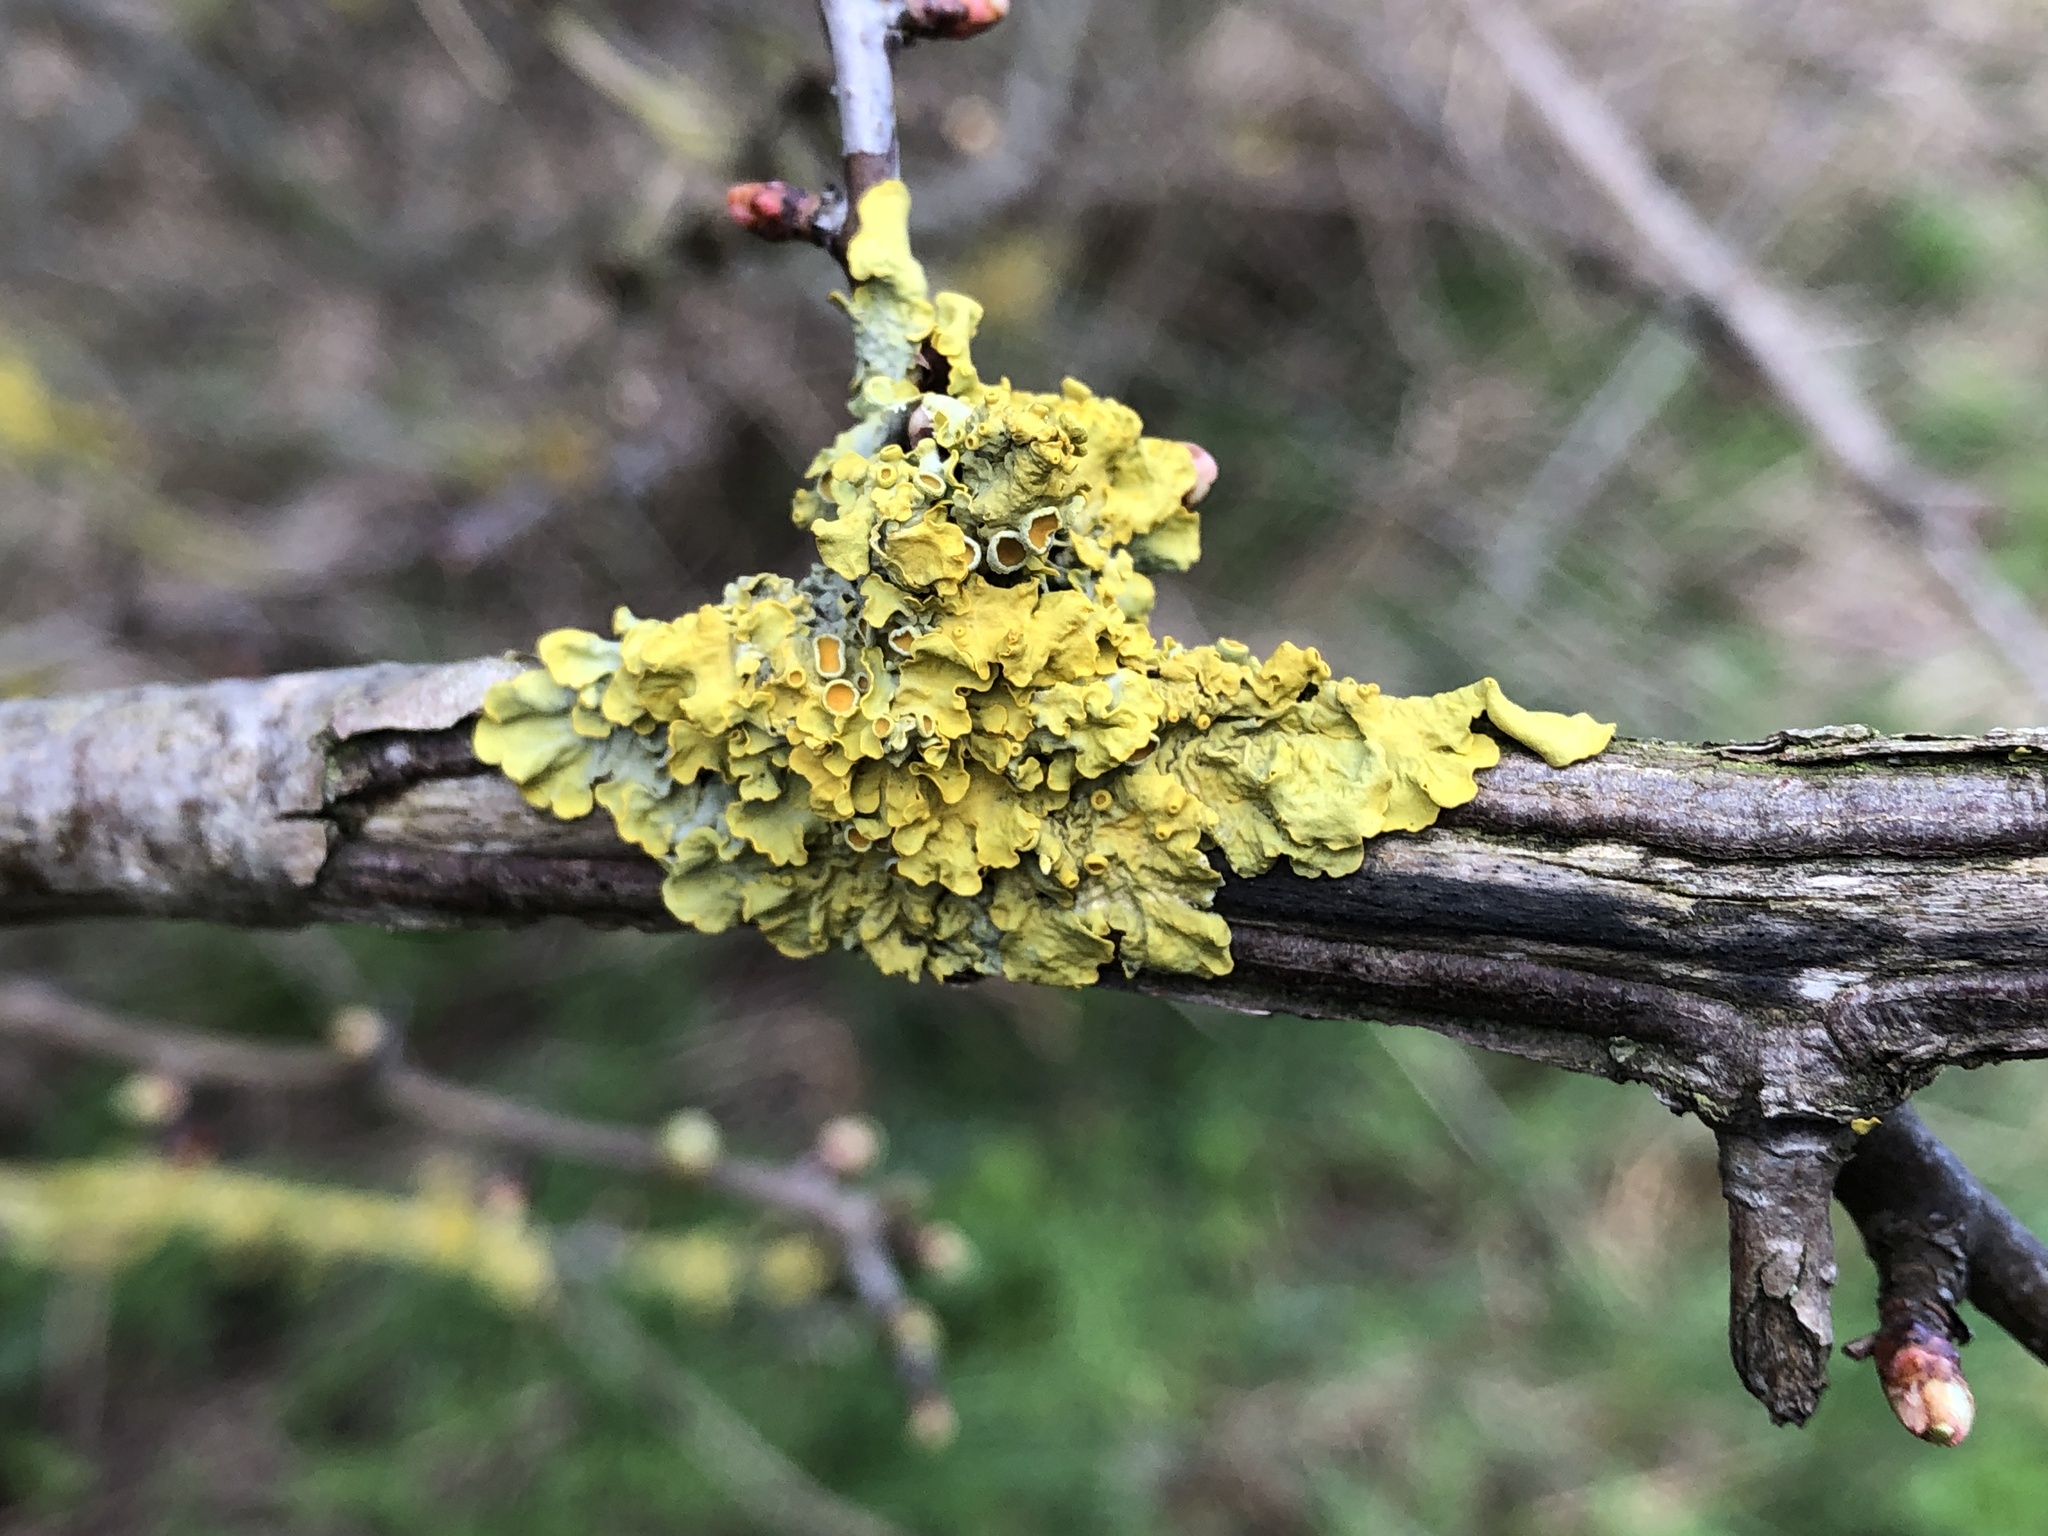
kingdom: Fungi
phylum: Ascomycota
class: Lecanoromycetes
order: Teloschistales
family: Teloschistaceae
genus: Xanthoria
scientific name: Xanthoria parietina
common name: Common orange lichen
